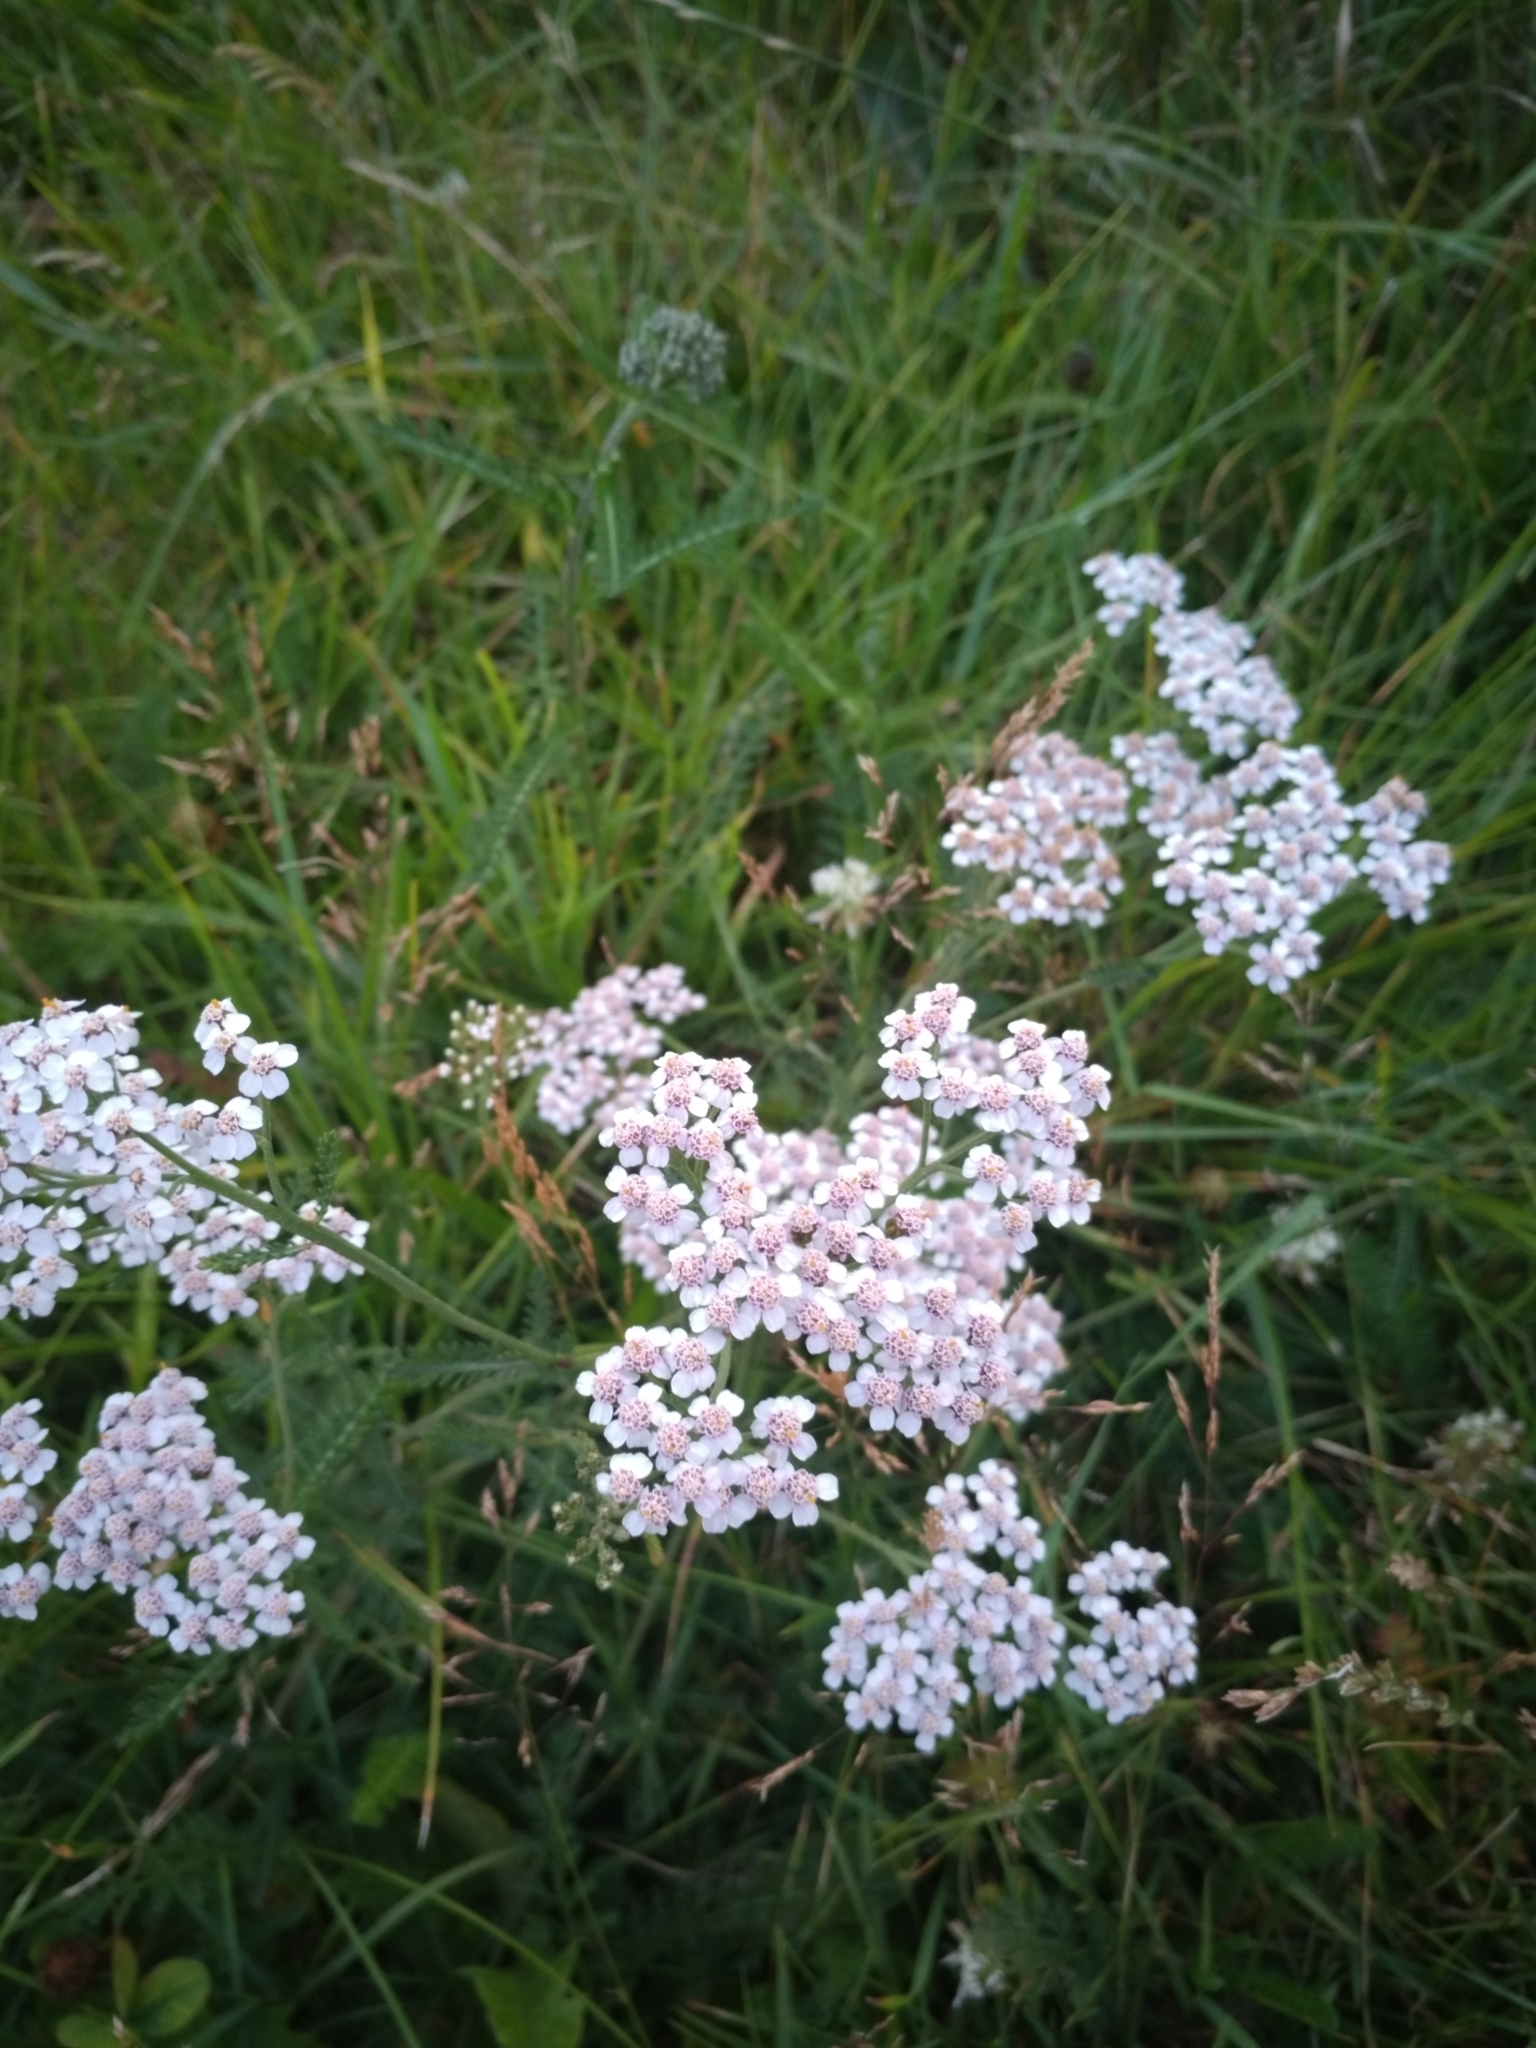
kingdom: Plantae
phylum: Tracheophyta
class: Magnoliopsida
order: Asterales
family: Asteraceae
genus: Achillea
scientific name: Achillea millefolium
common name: Yarrow
